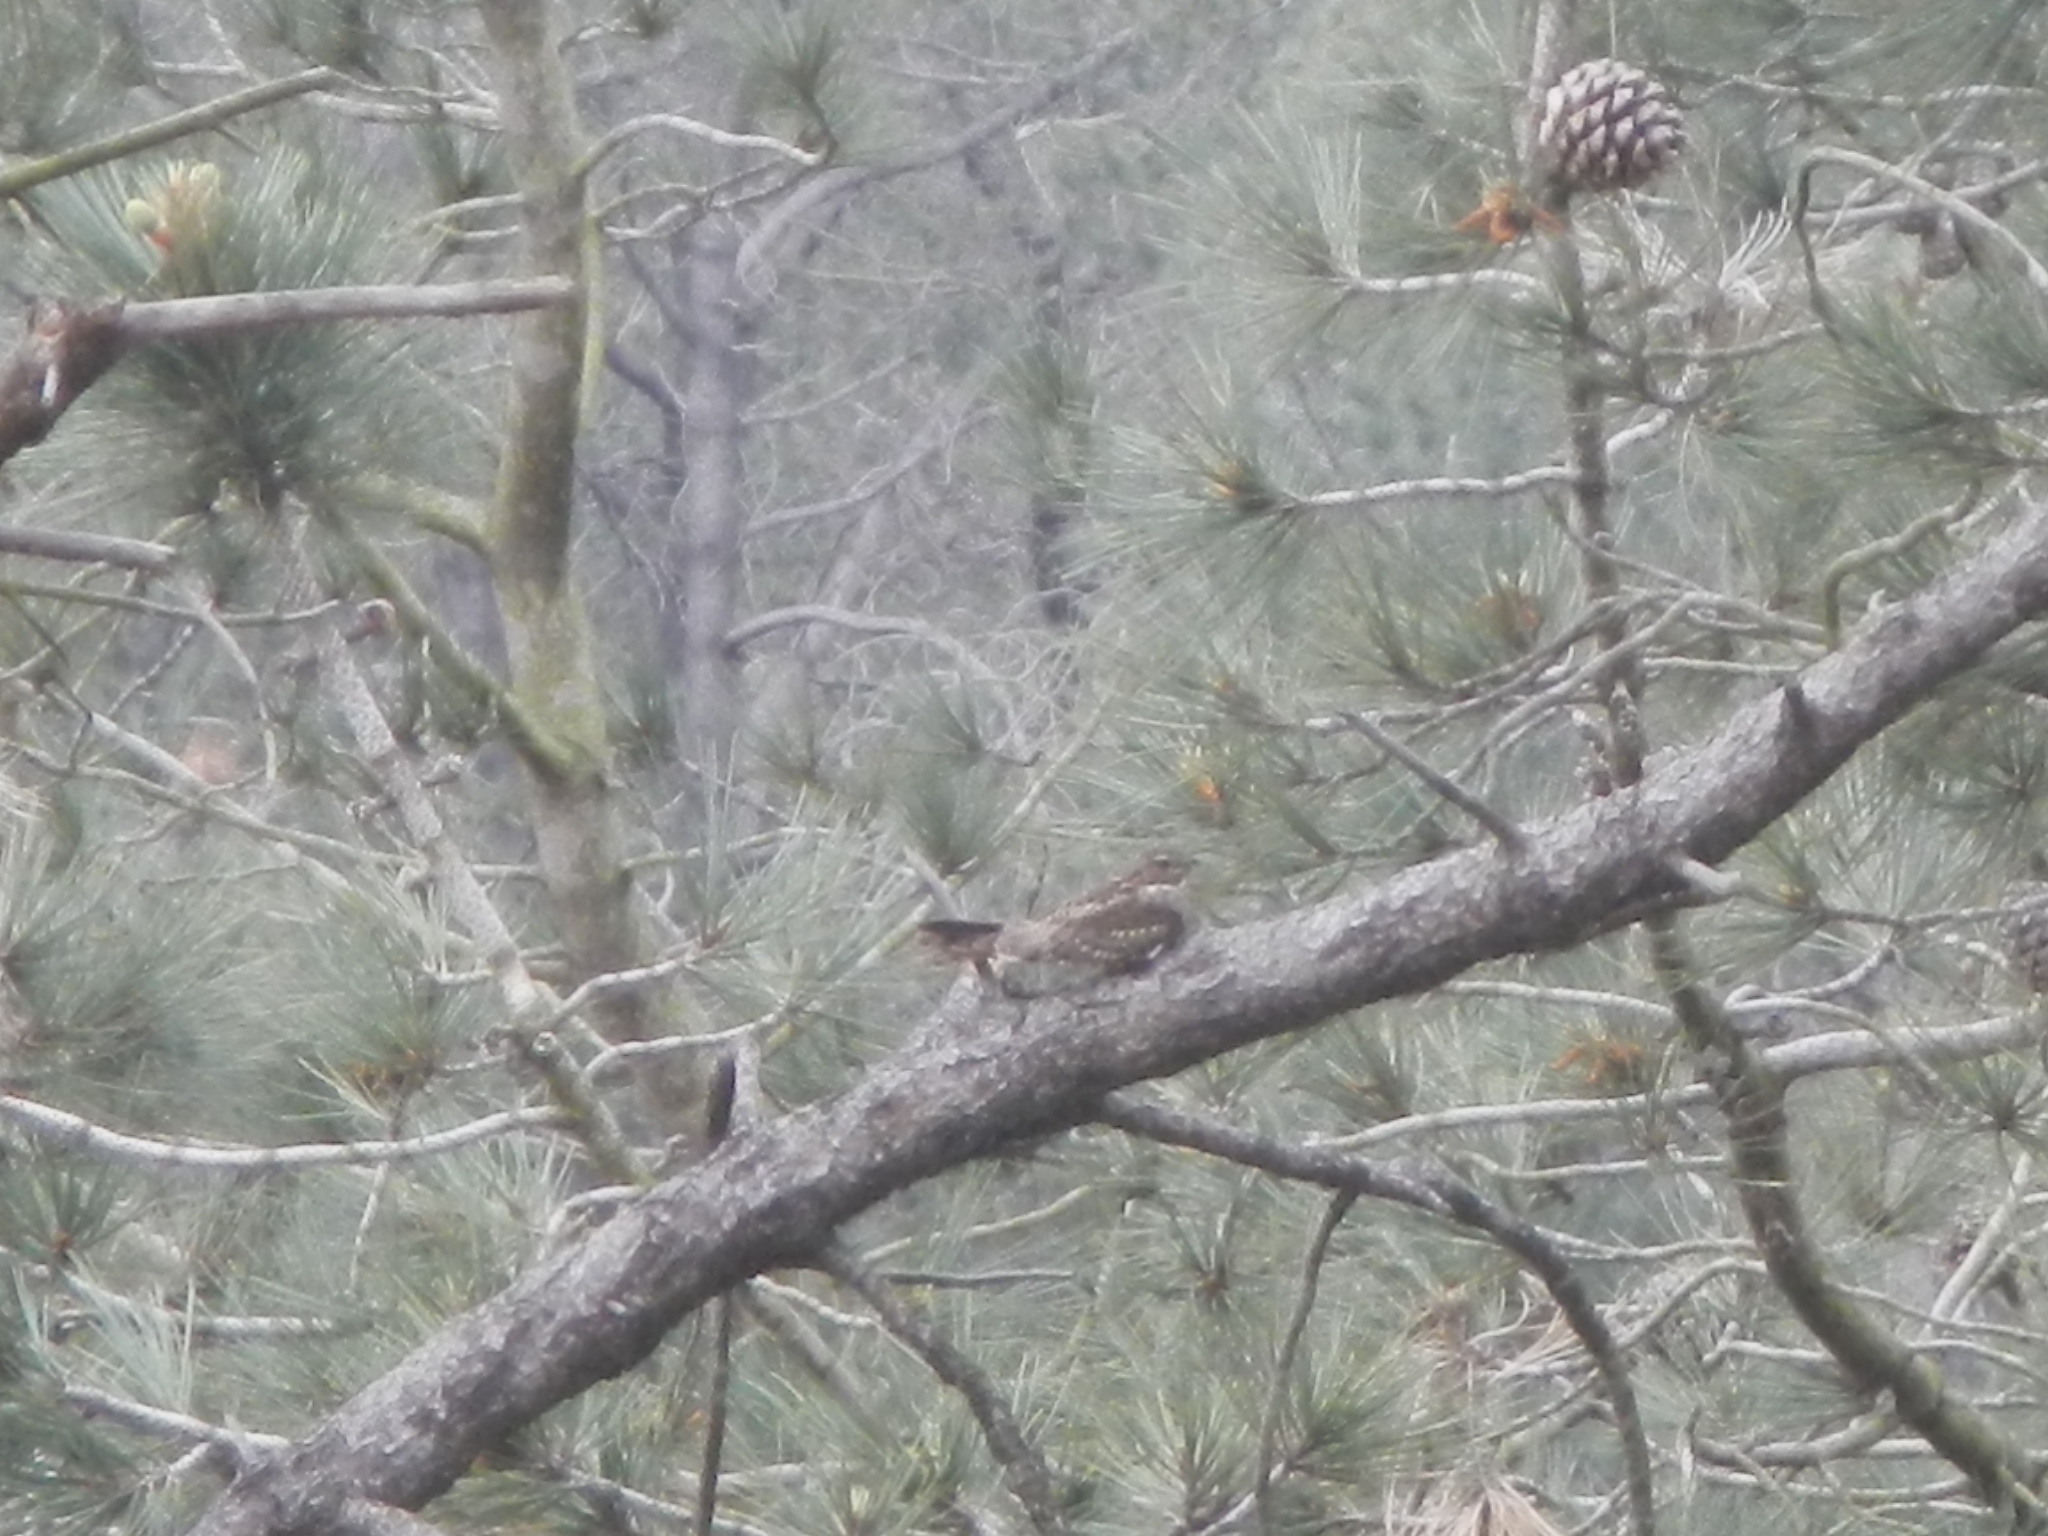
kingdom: Animalia
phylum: Chordata
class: Aves
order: Caprimulgiformes
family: Caprimulgidae
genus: Chordeiles
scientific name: Chordeiles acutipennis
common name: Lesser nighthawk
